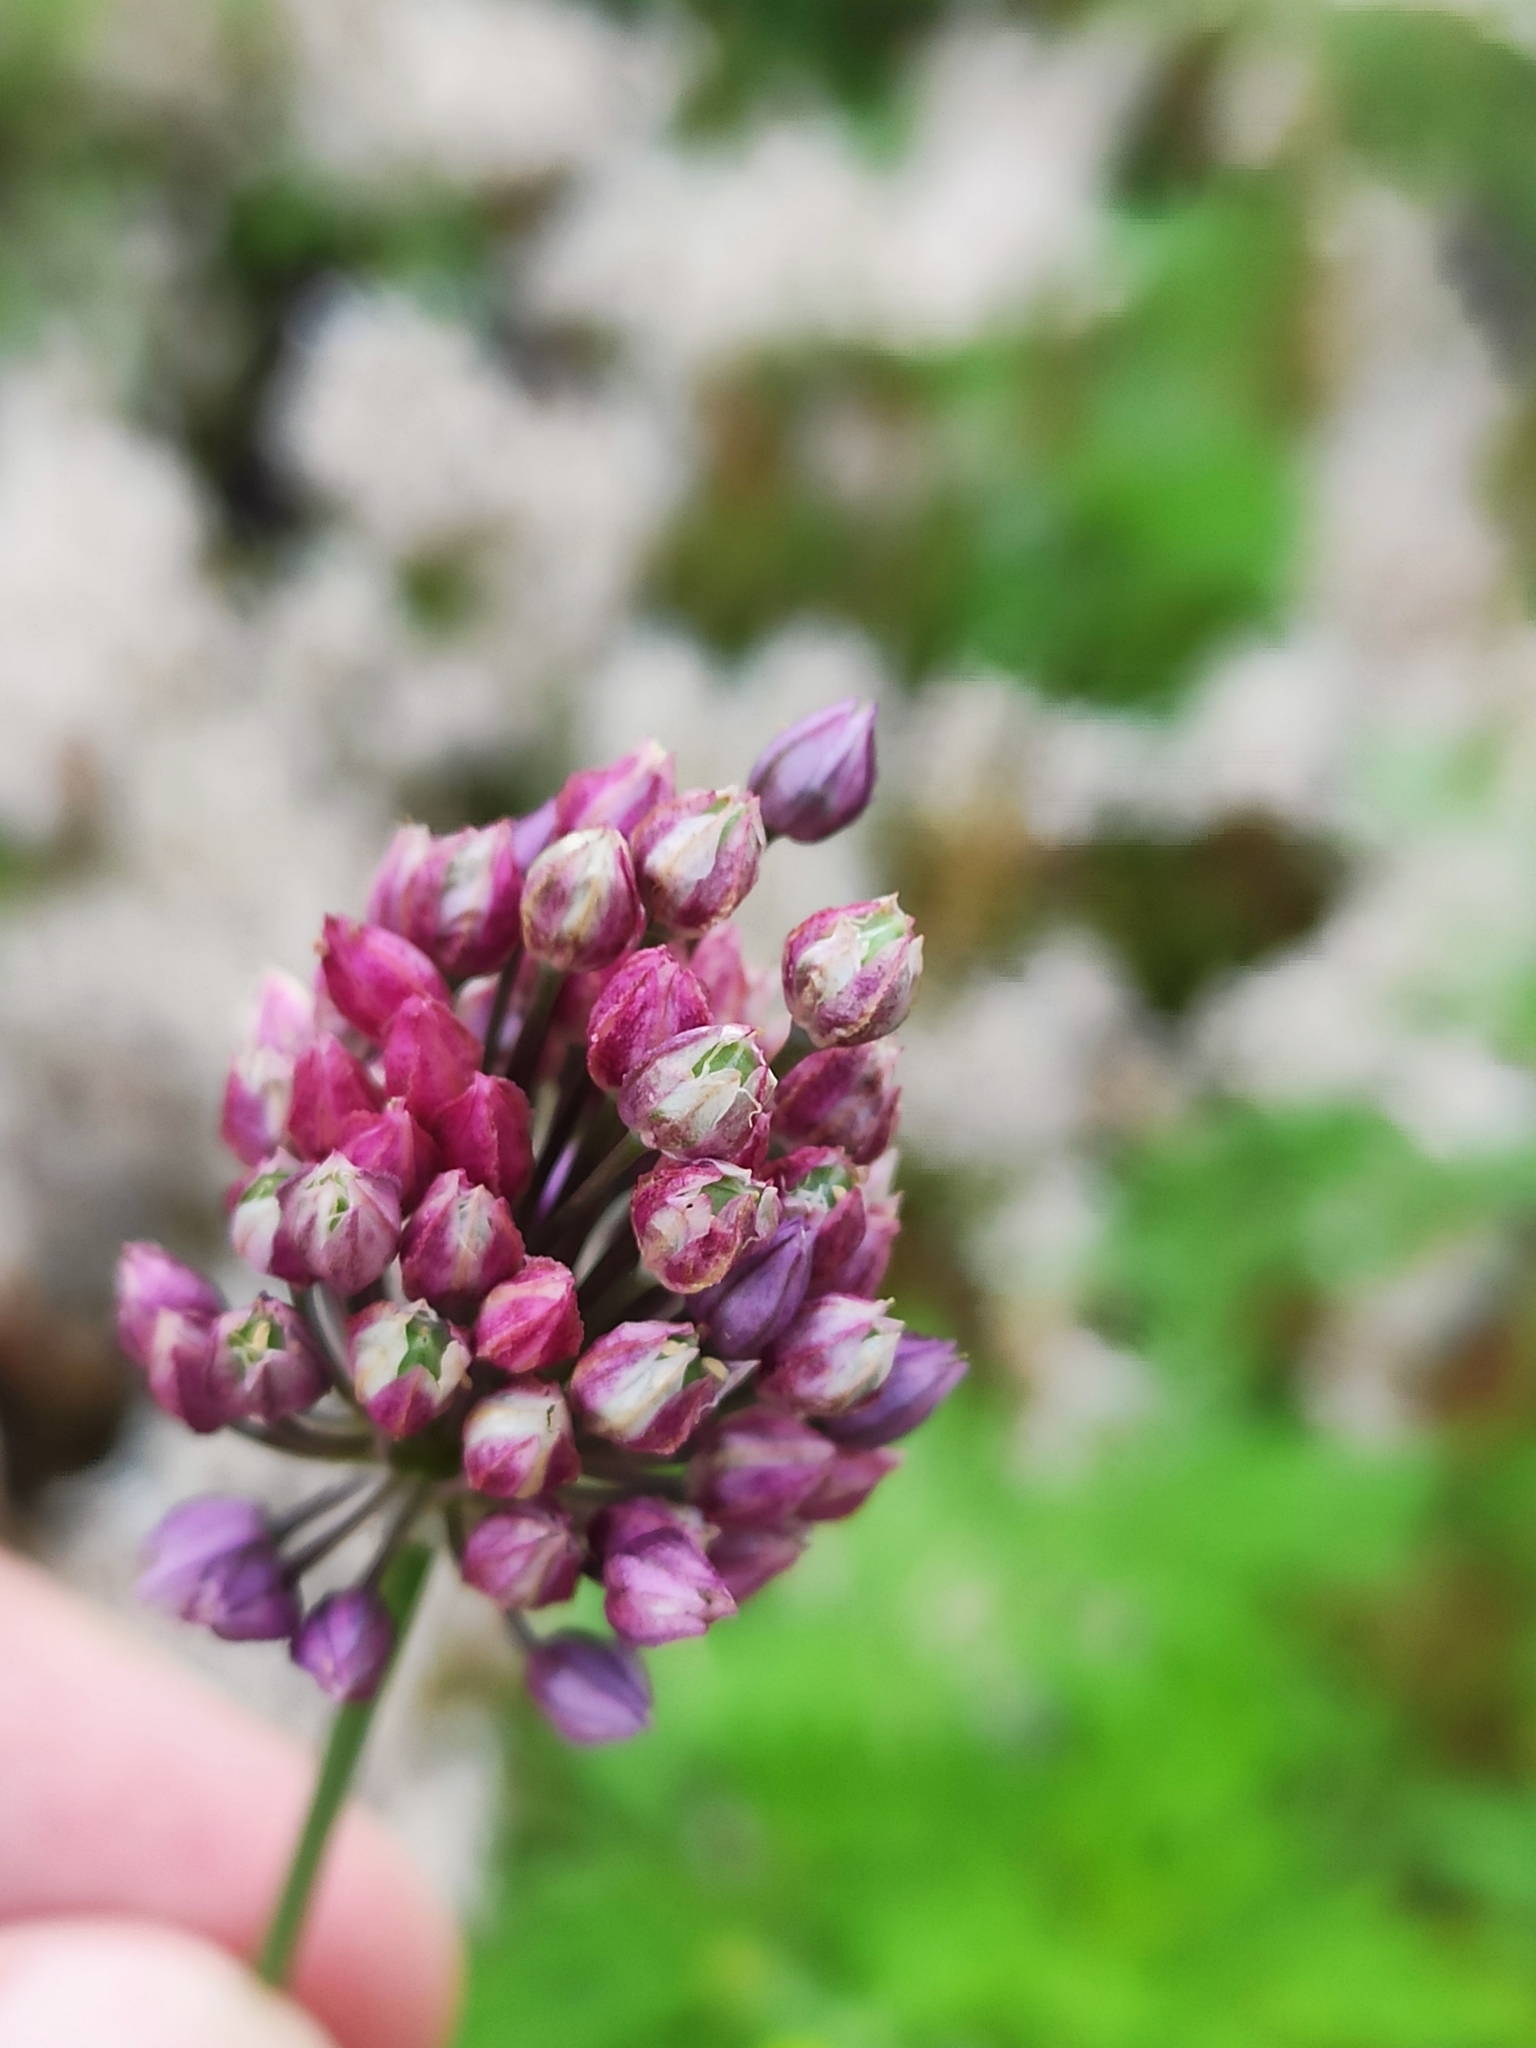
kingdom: Plantae
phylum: Tracheophyta
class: Liliopsida
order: Asparagales
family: Amaryllidaceae
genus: Allium
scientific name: Allium rotundum
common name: Sand leek
